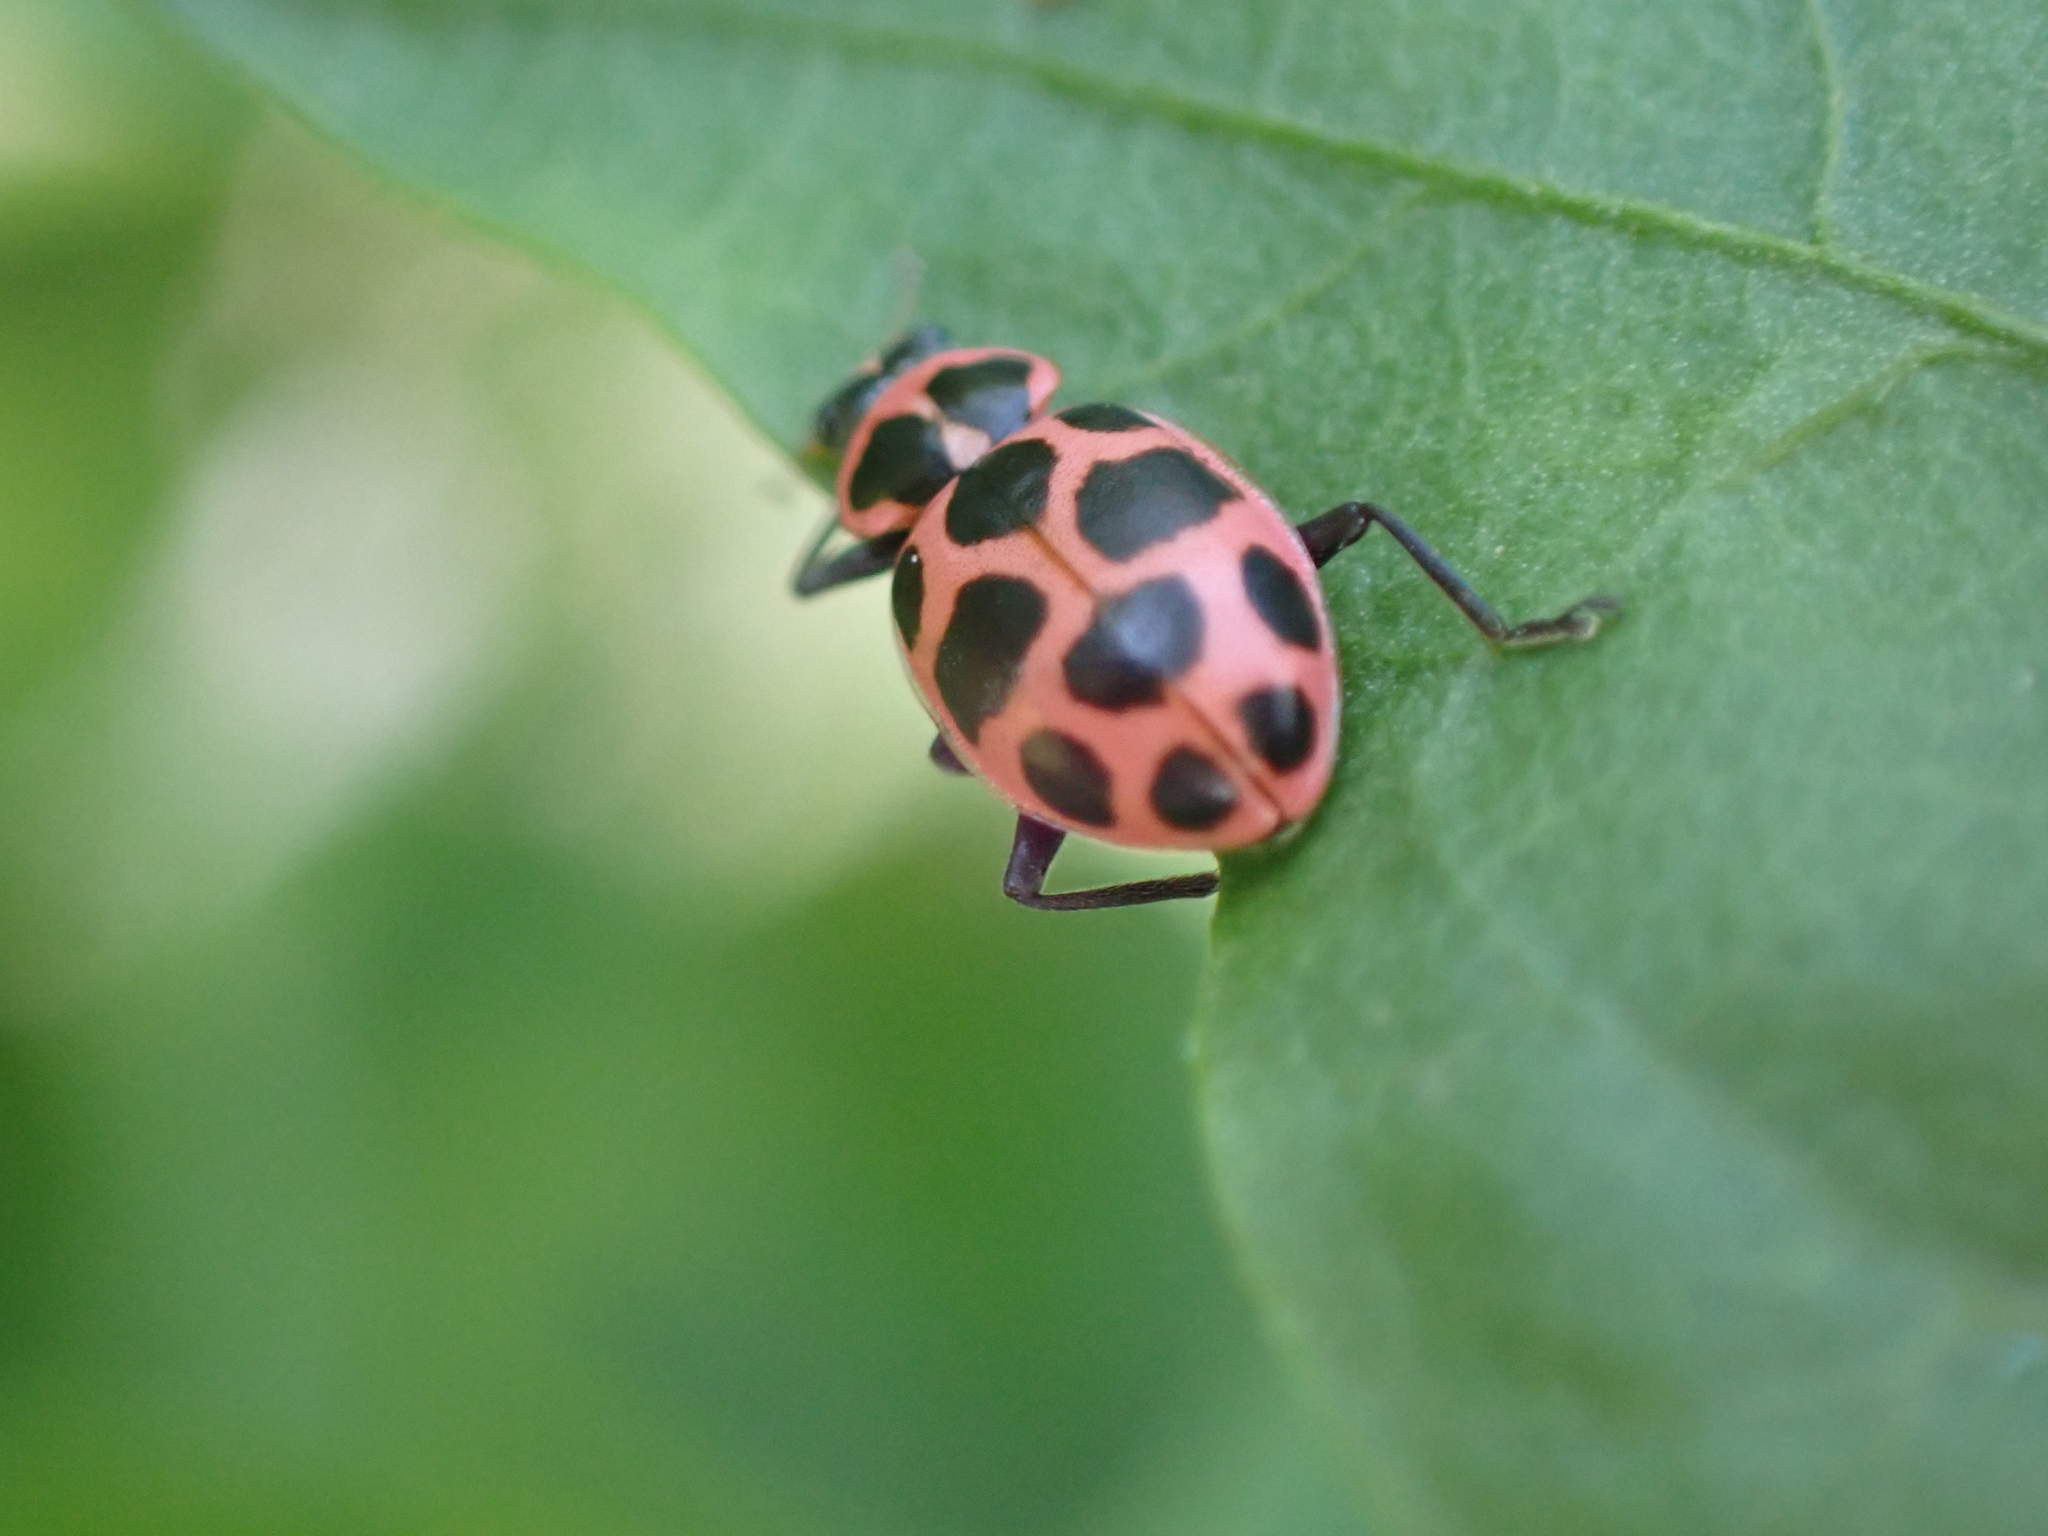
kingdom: Animalia
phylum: Arthropoda
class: Insecta
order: Coleoptera
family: Coccinellidae
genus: Coleomegilla
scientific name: Coleomegilla maculata
